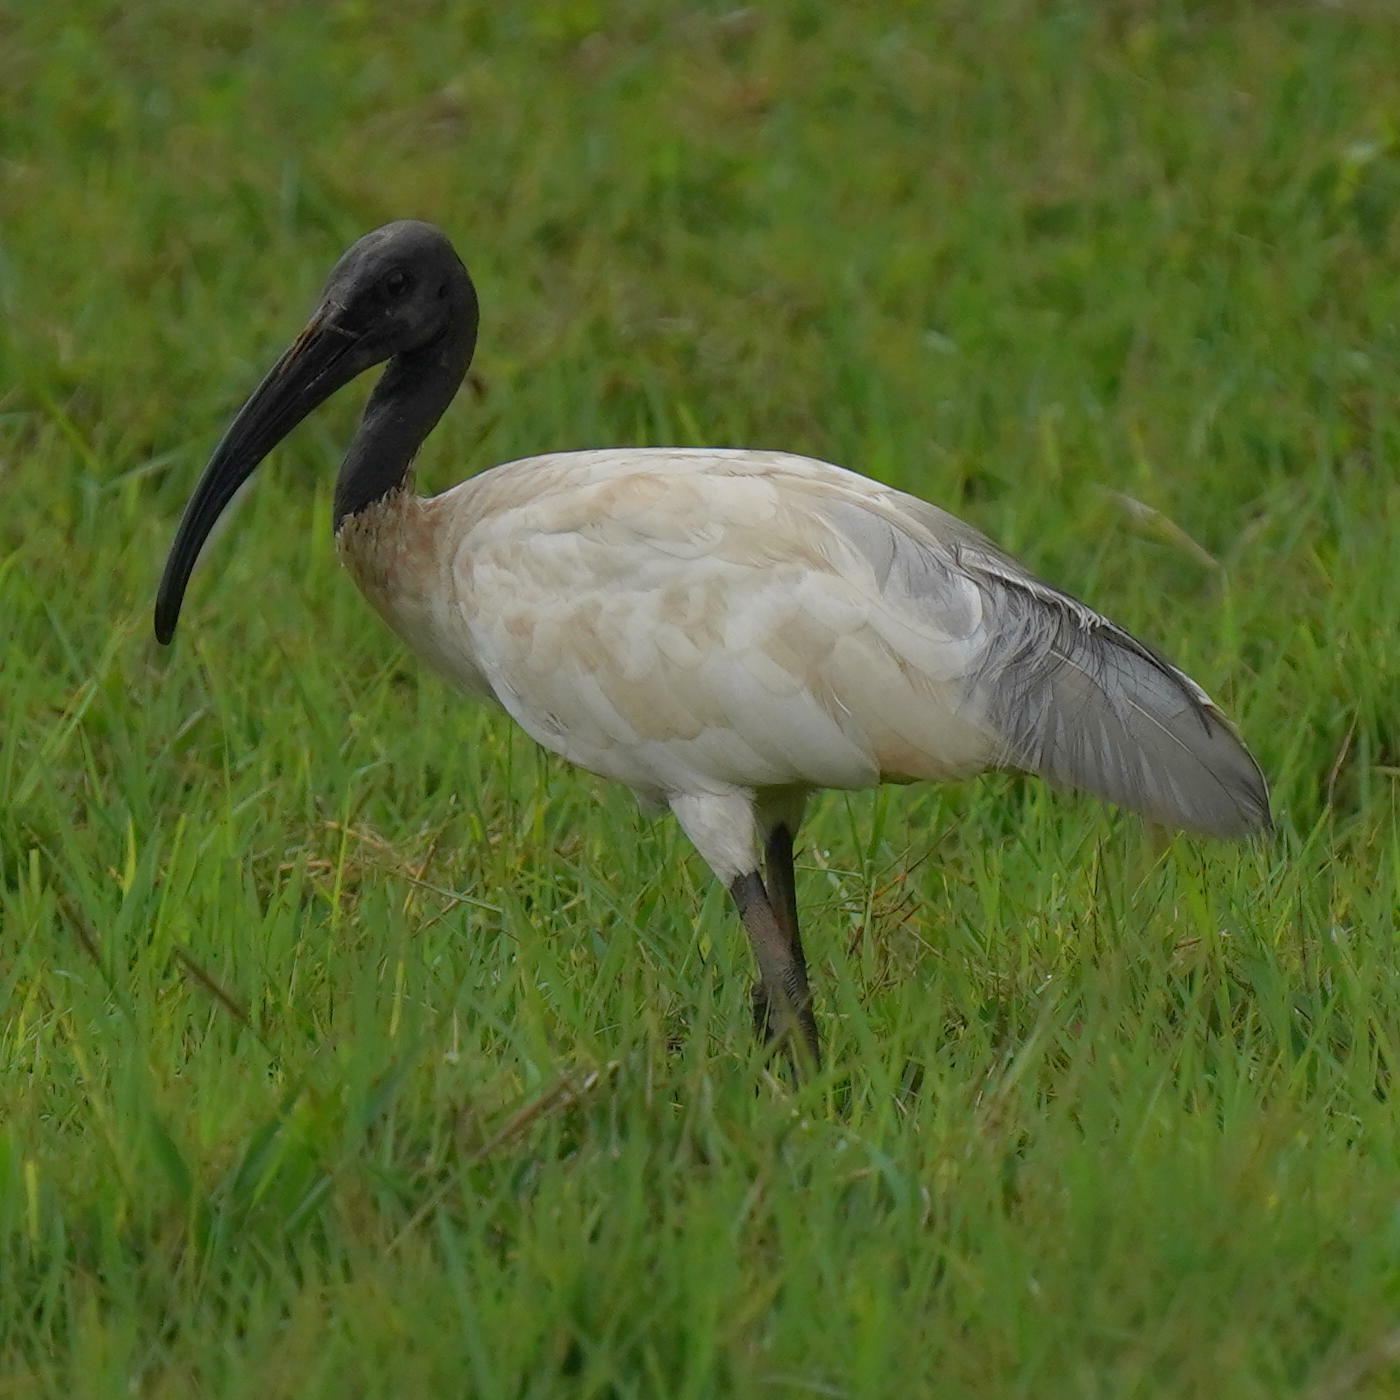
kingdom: Animalia
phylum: Chordata
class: Aves
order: Pelecaniformes
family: Threskiornithidae
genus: Threskiornis
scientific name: Threskiornis melanocephalus
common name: Black-headed ibis
